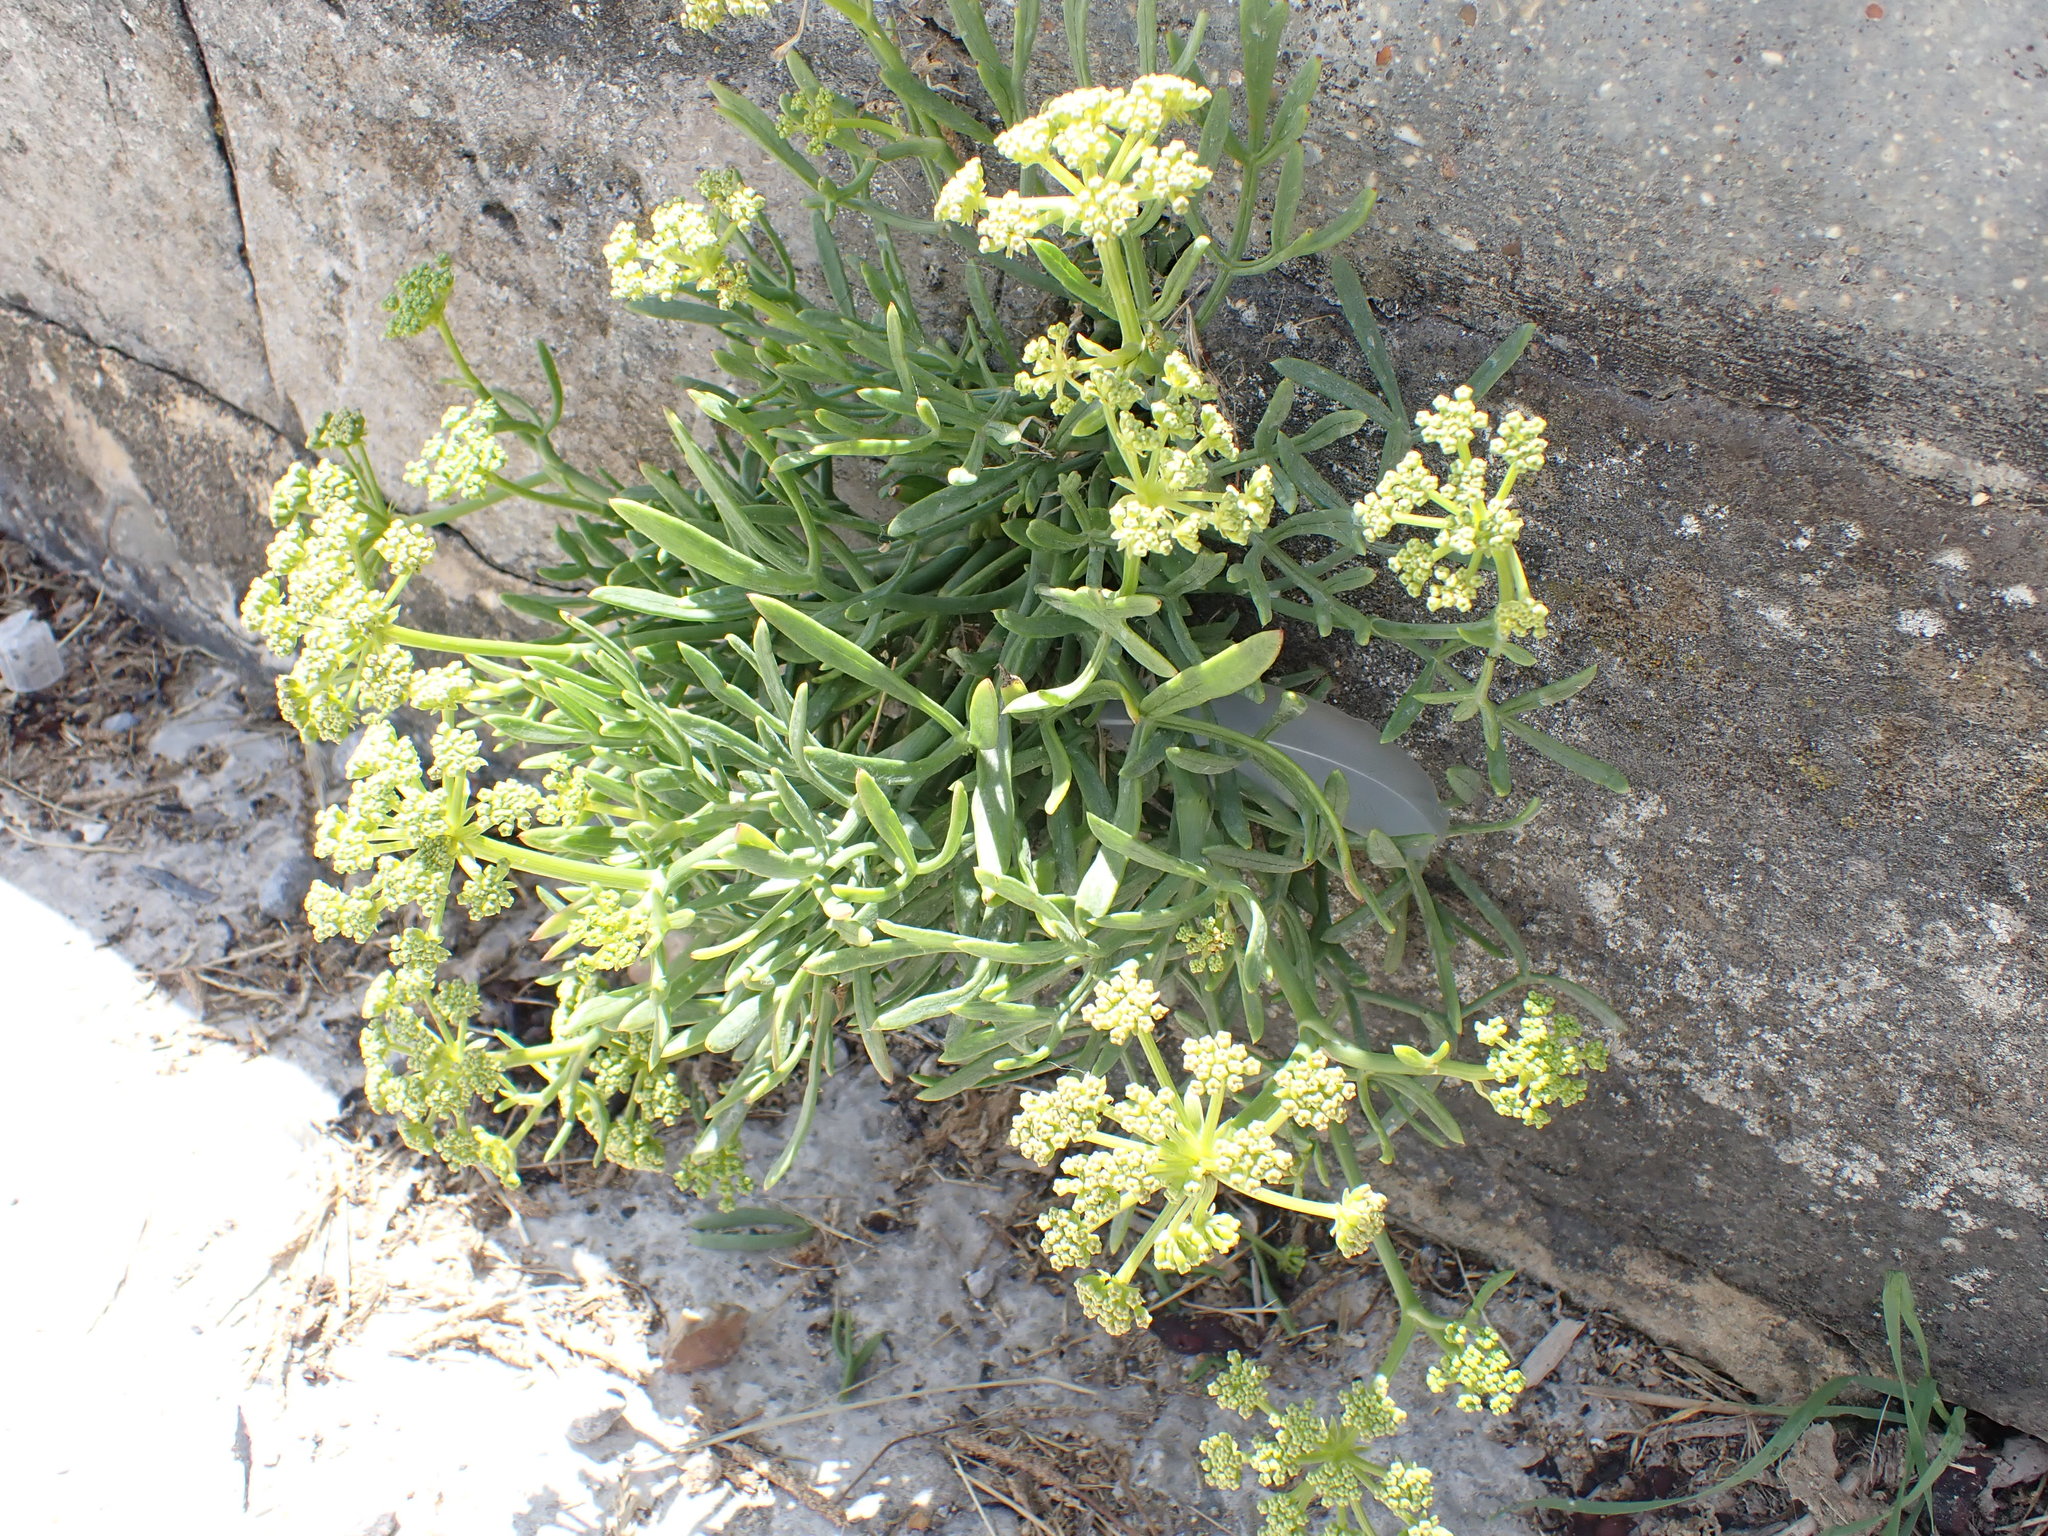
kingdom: Plantae
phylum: Tracheophyta
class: Magnoliopsida
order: Apiales
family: Apiaceae
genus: Crithmum
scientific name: Crithmum maritimum
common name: Rock samphire
